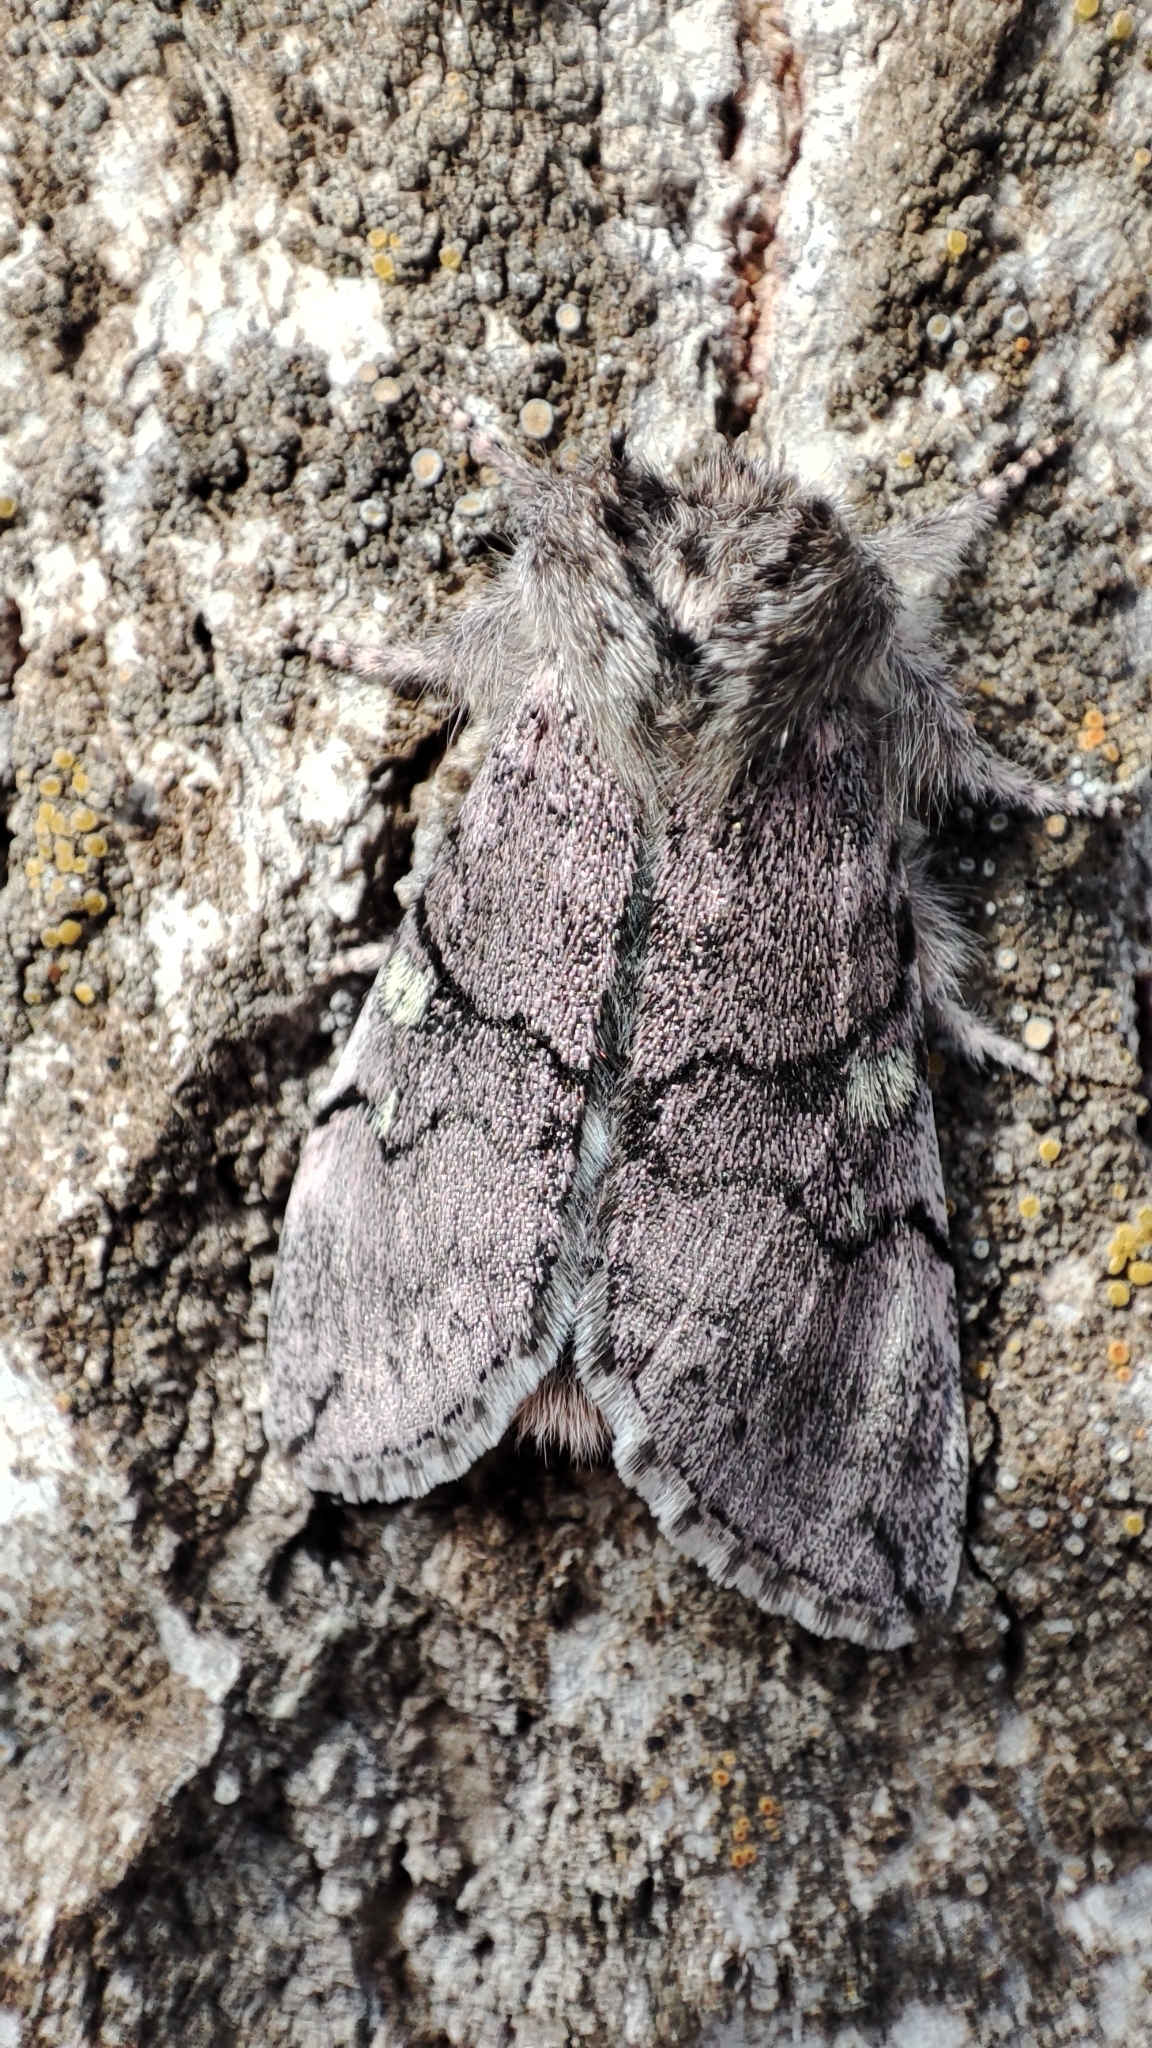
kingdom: Animalia
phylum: Arthropoda
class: Insecta
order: Lepidoptera
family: Drepanidae
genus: Achlya
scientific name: Achlya flavicornis
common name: Yellow horned
